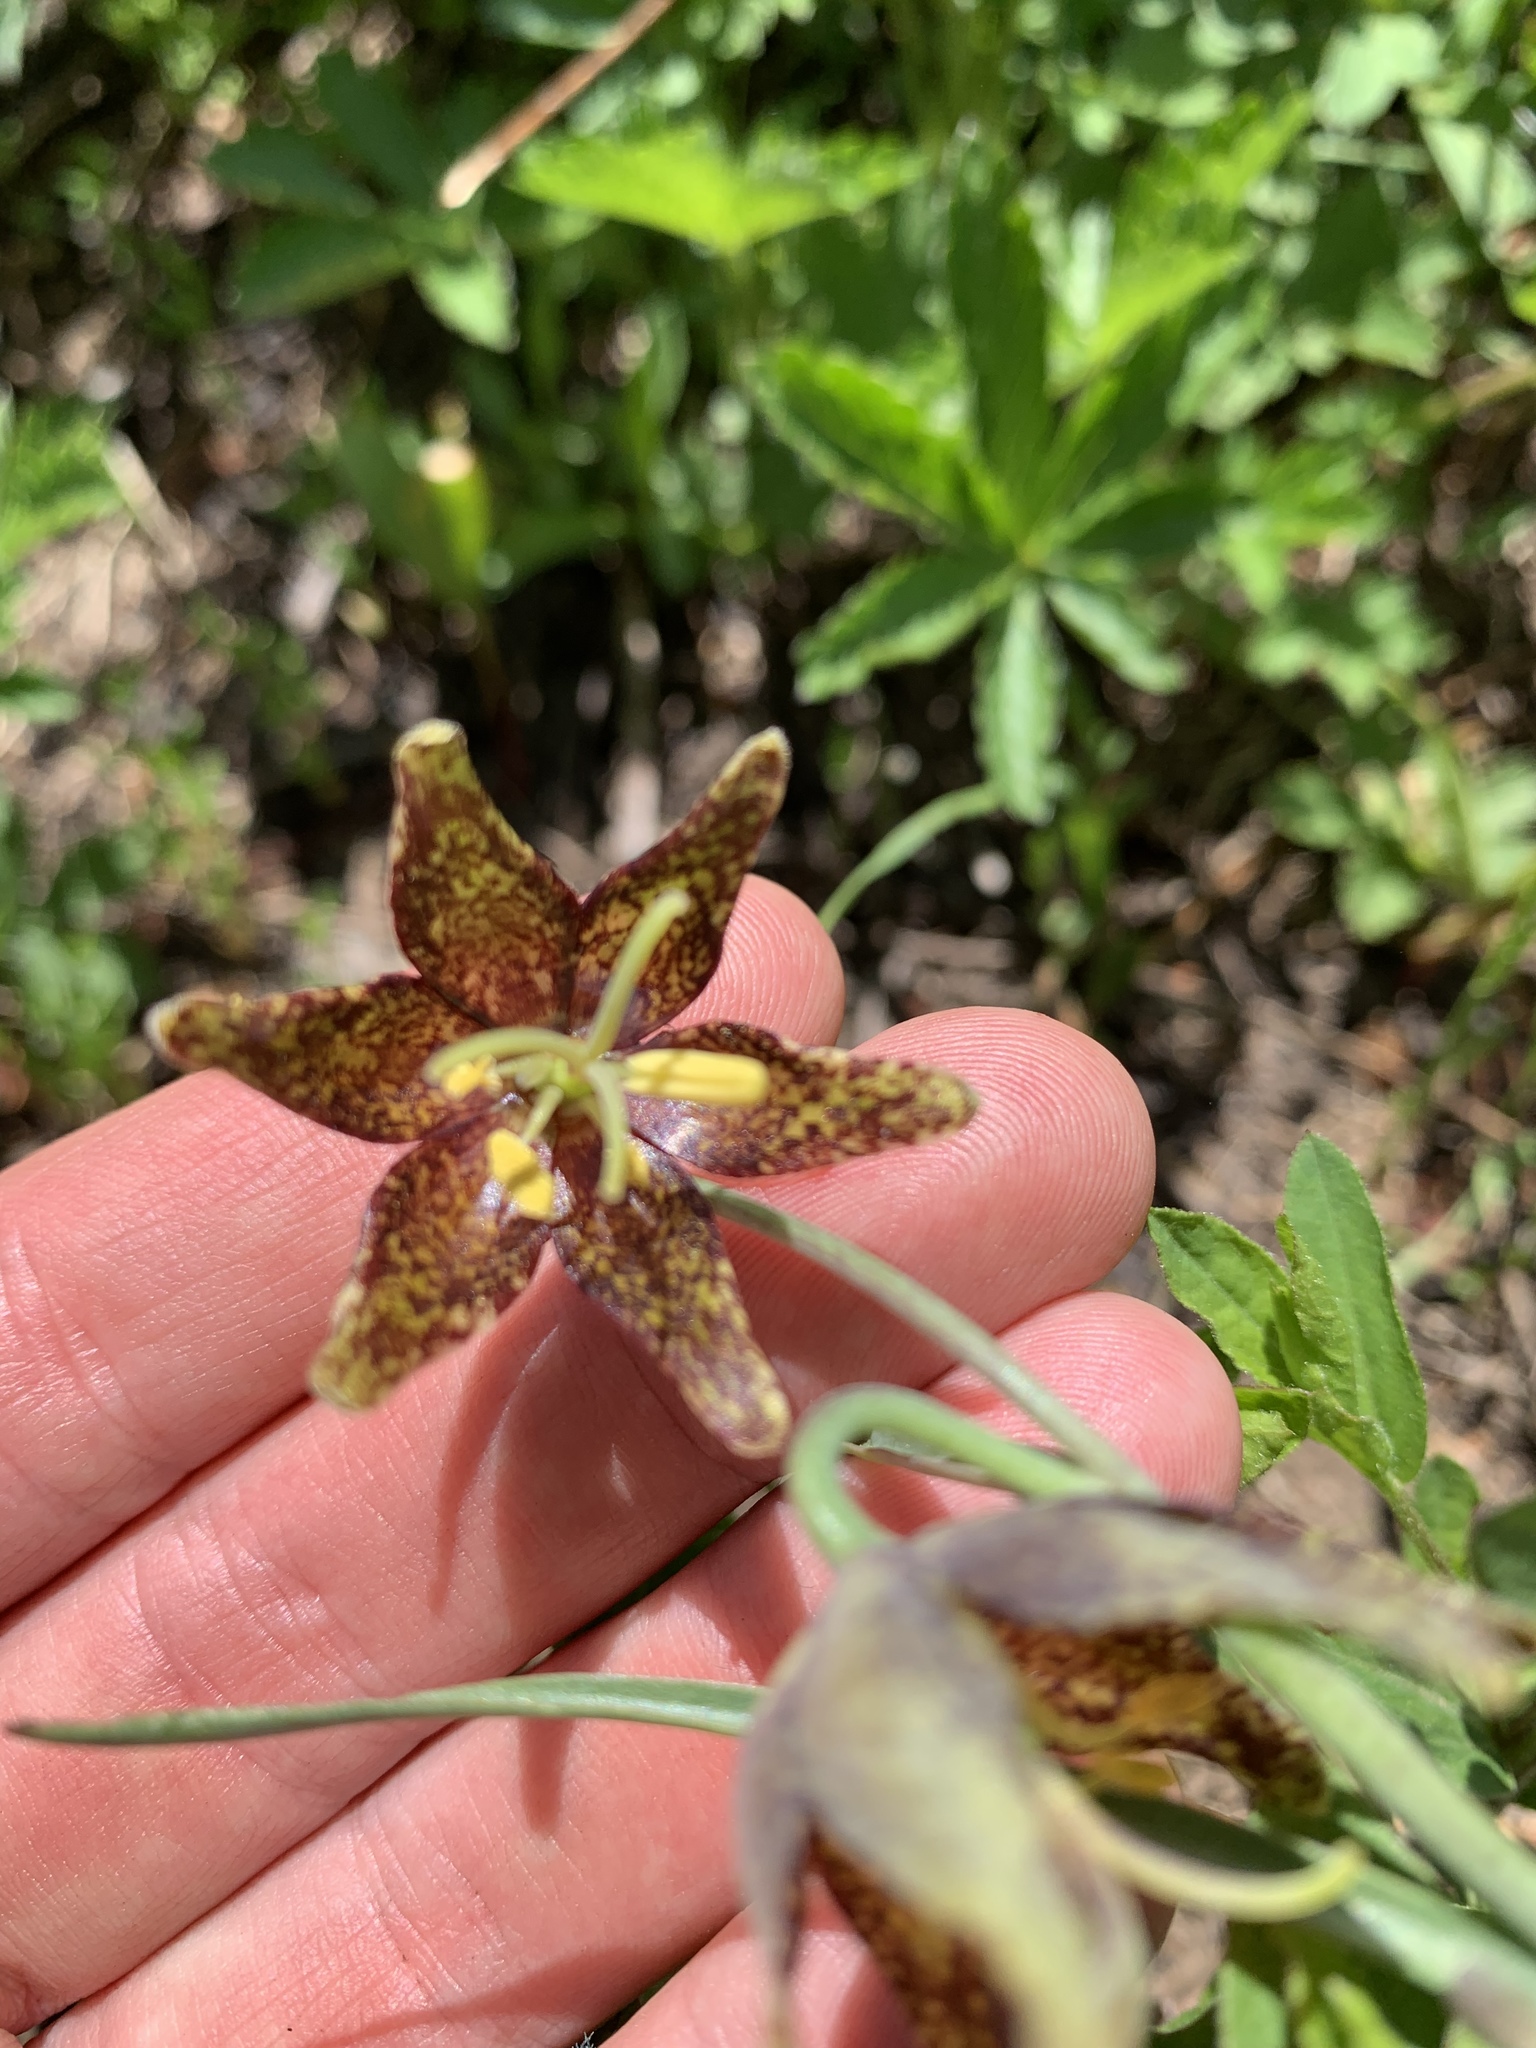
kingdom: Plantae
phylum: Tracheophyta
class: Liliopsida
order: Liliales
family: Liliaceae
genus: Fritillaria
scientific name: Fritillaria atropurpurea
